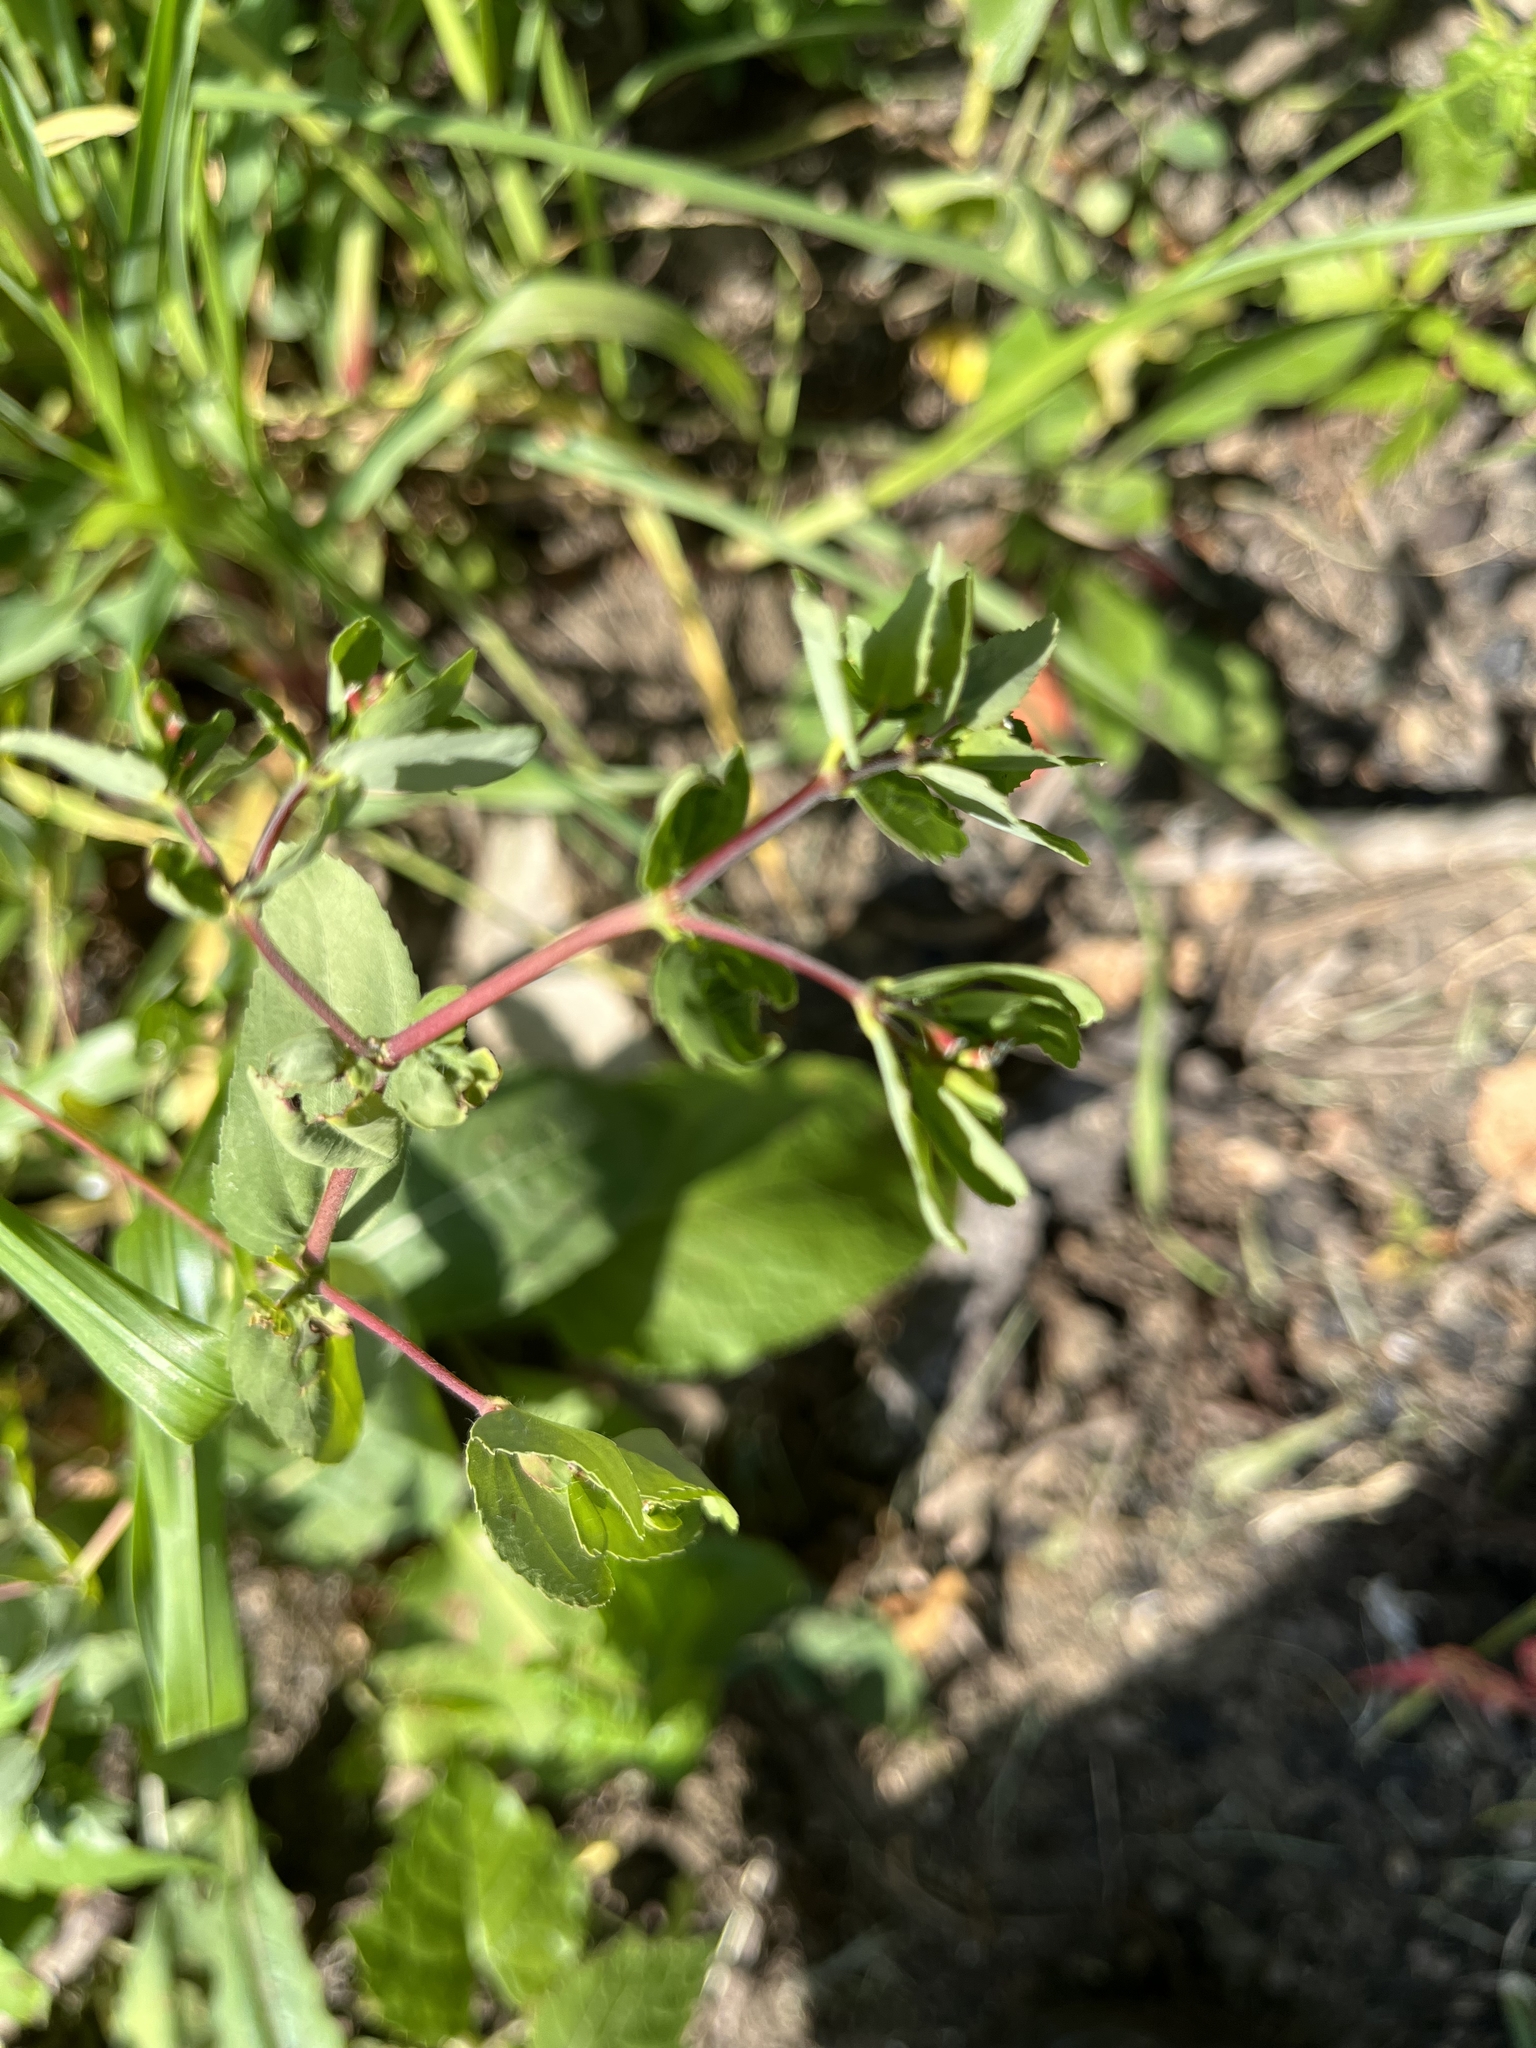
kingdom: Plantae
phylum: Tracheophyta
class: Magnoliopsida
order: Malpighiales
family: Euphorbiaceae
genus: Euphorbia
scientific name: Euphorbia nutans
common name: Eyebane
